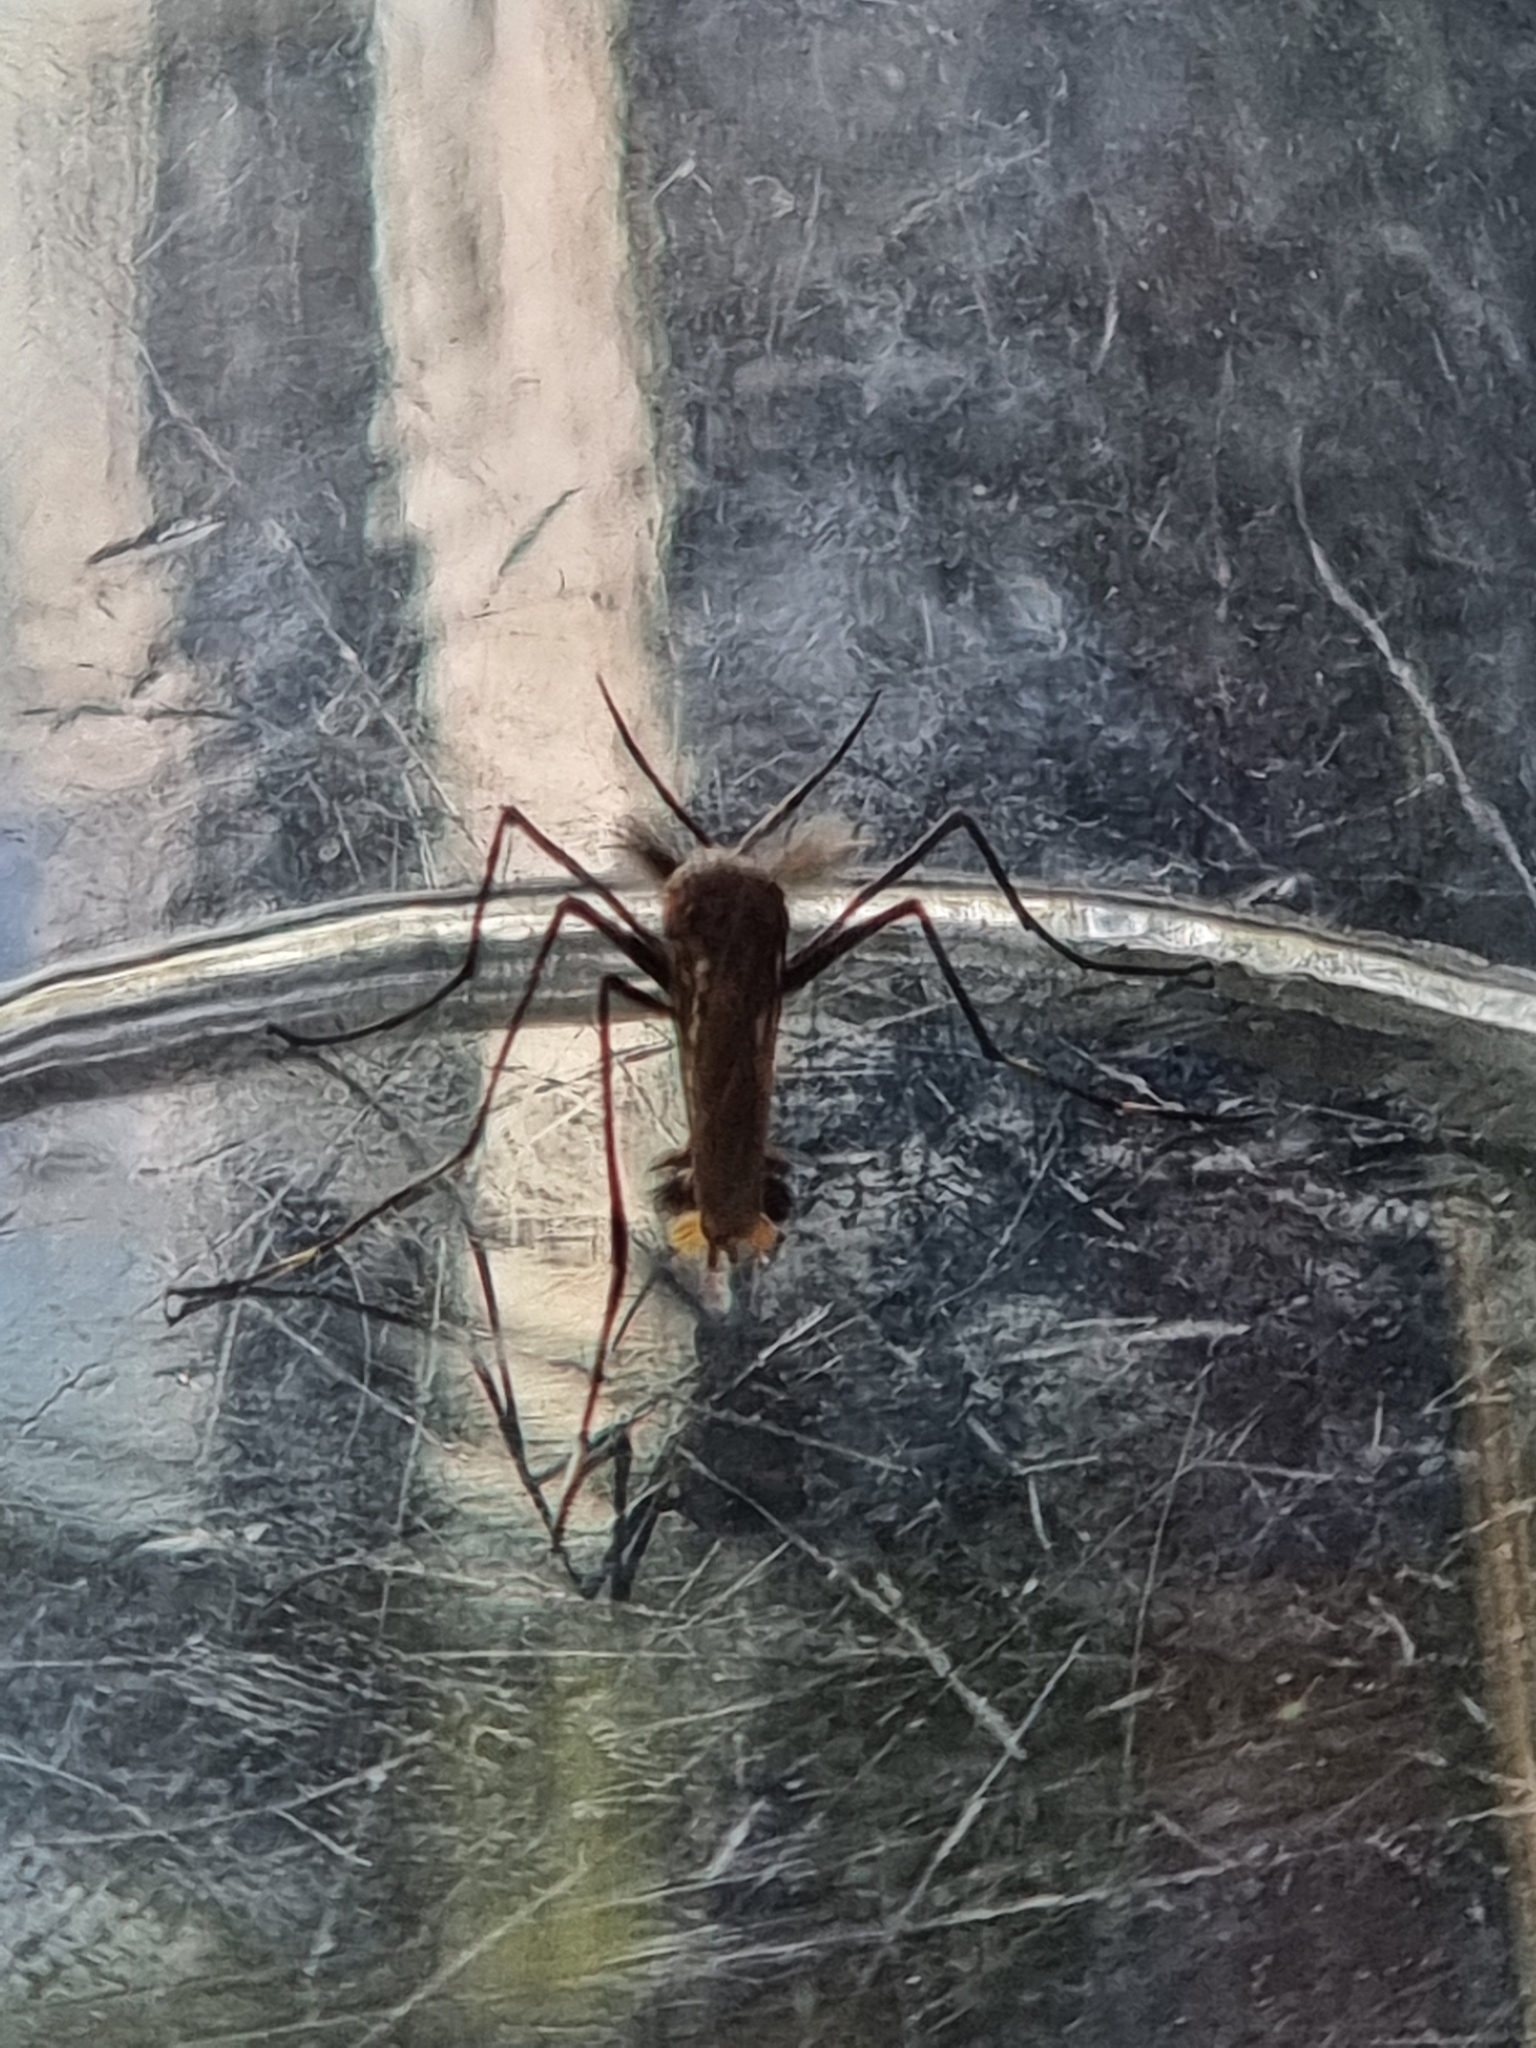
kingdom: Animalia
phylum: Arthropoda
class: Insecta
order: Diptera
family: Culicidae
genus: Toxorhynchites
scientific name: Toxorhynchites speciosus
